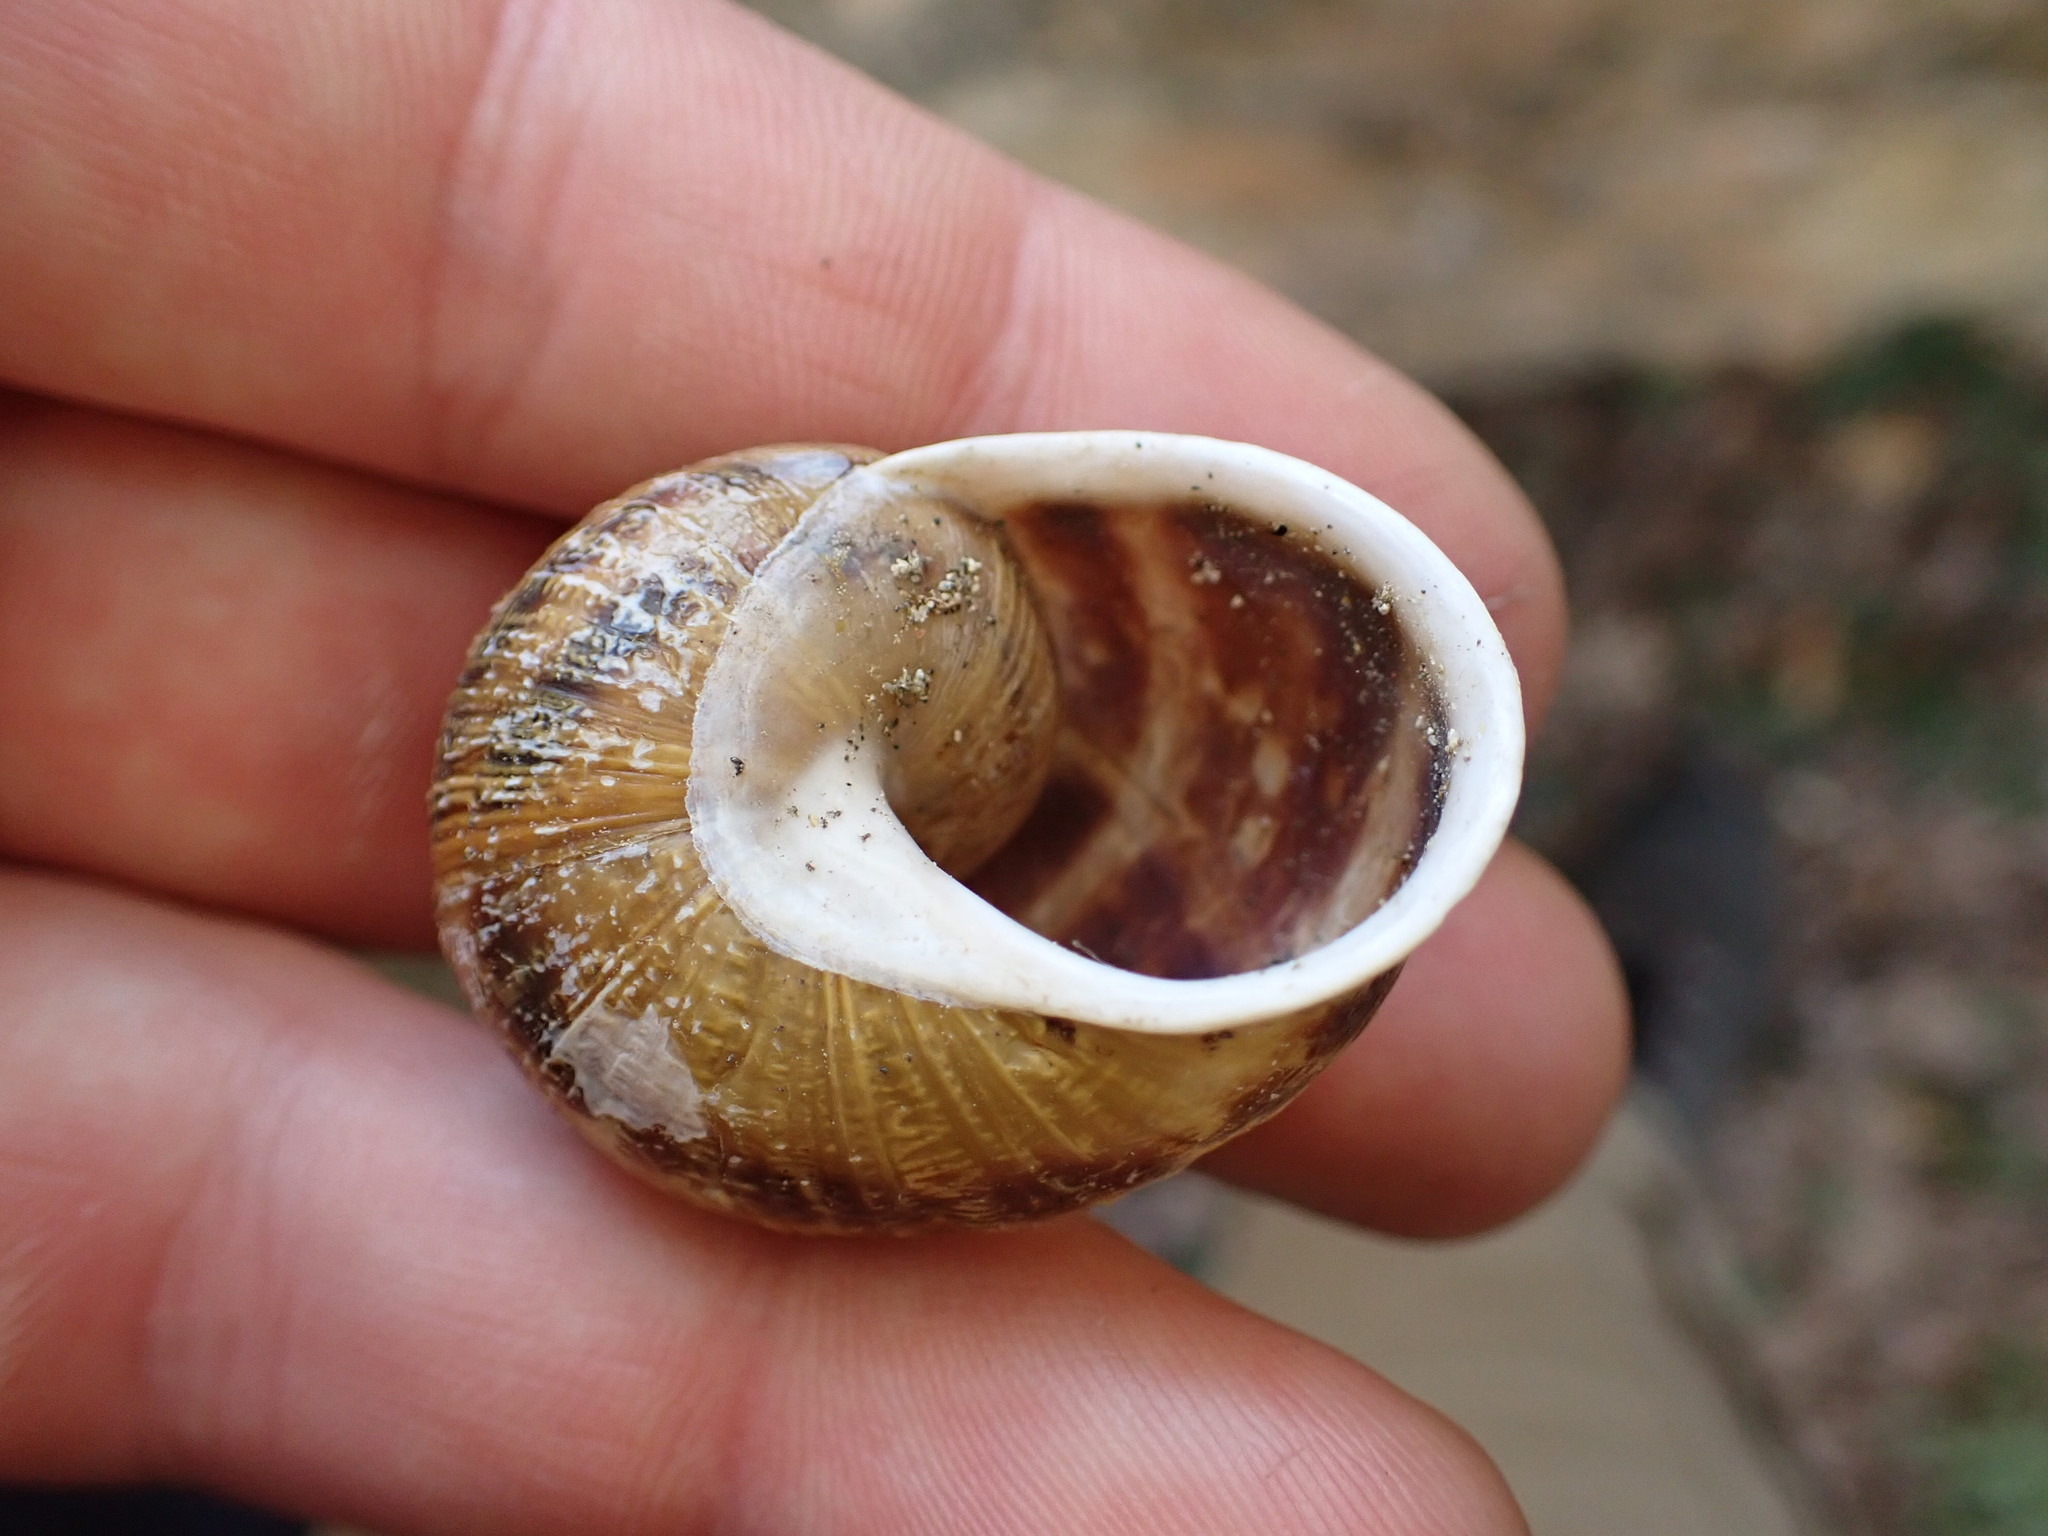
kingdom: Animalia
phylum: Mollusca
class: Gastropoda
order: Stylommatophora
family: Helicidae
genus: Cornu
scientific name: Cornu aspersum
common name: Brown garden snail
